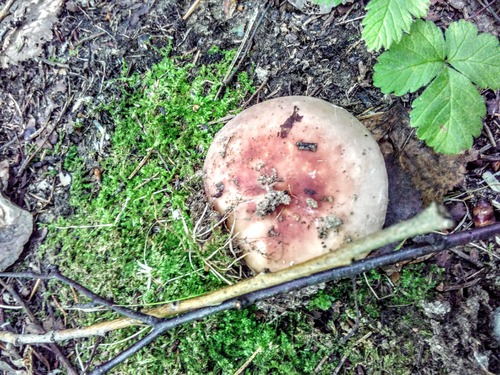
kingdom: Fungi
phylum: Basidiomycota
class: Agaricomycetes
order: Russulales
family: Russulaceae
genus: Russula
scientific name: Russula
